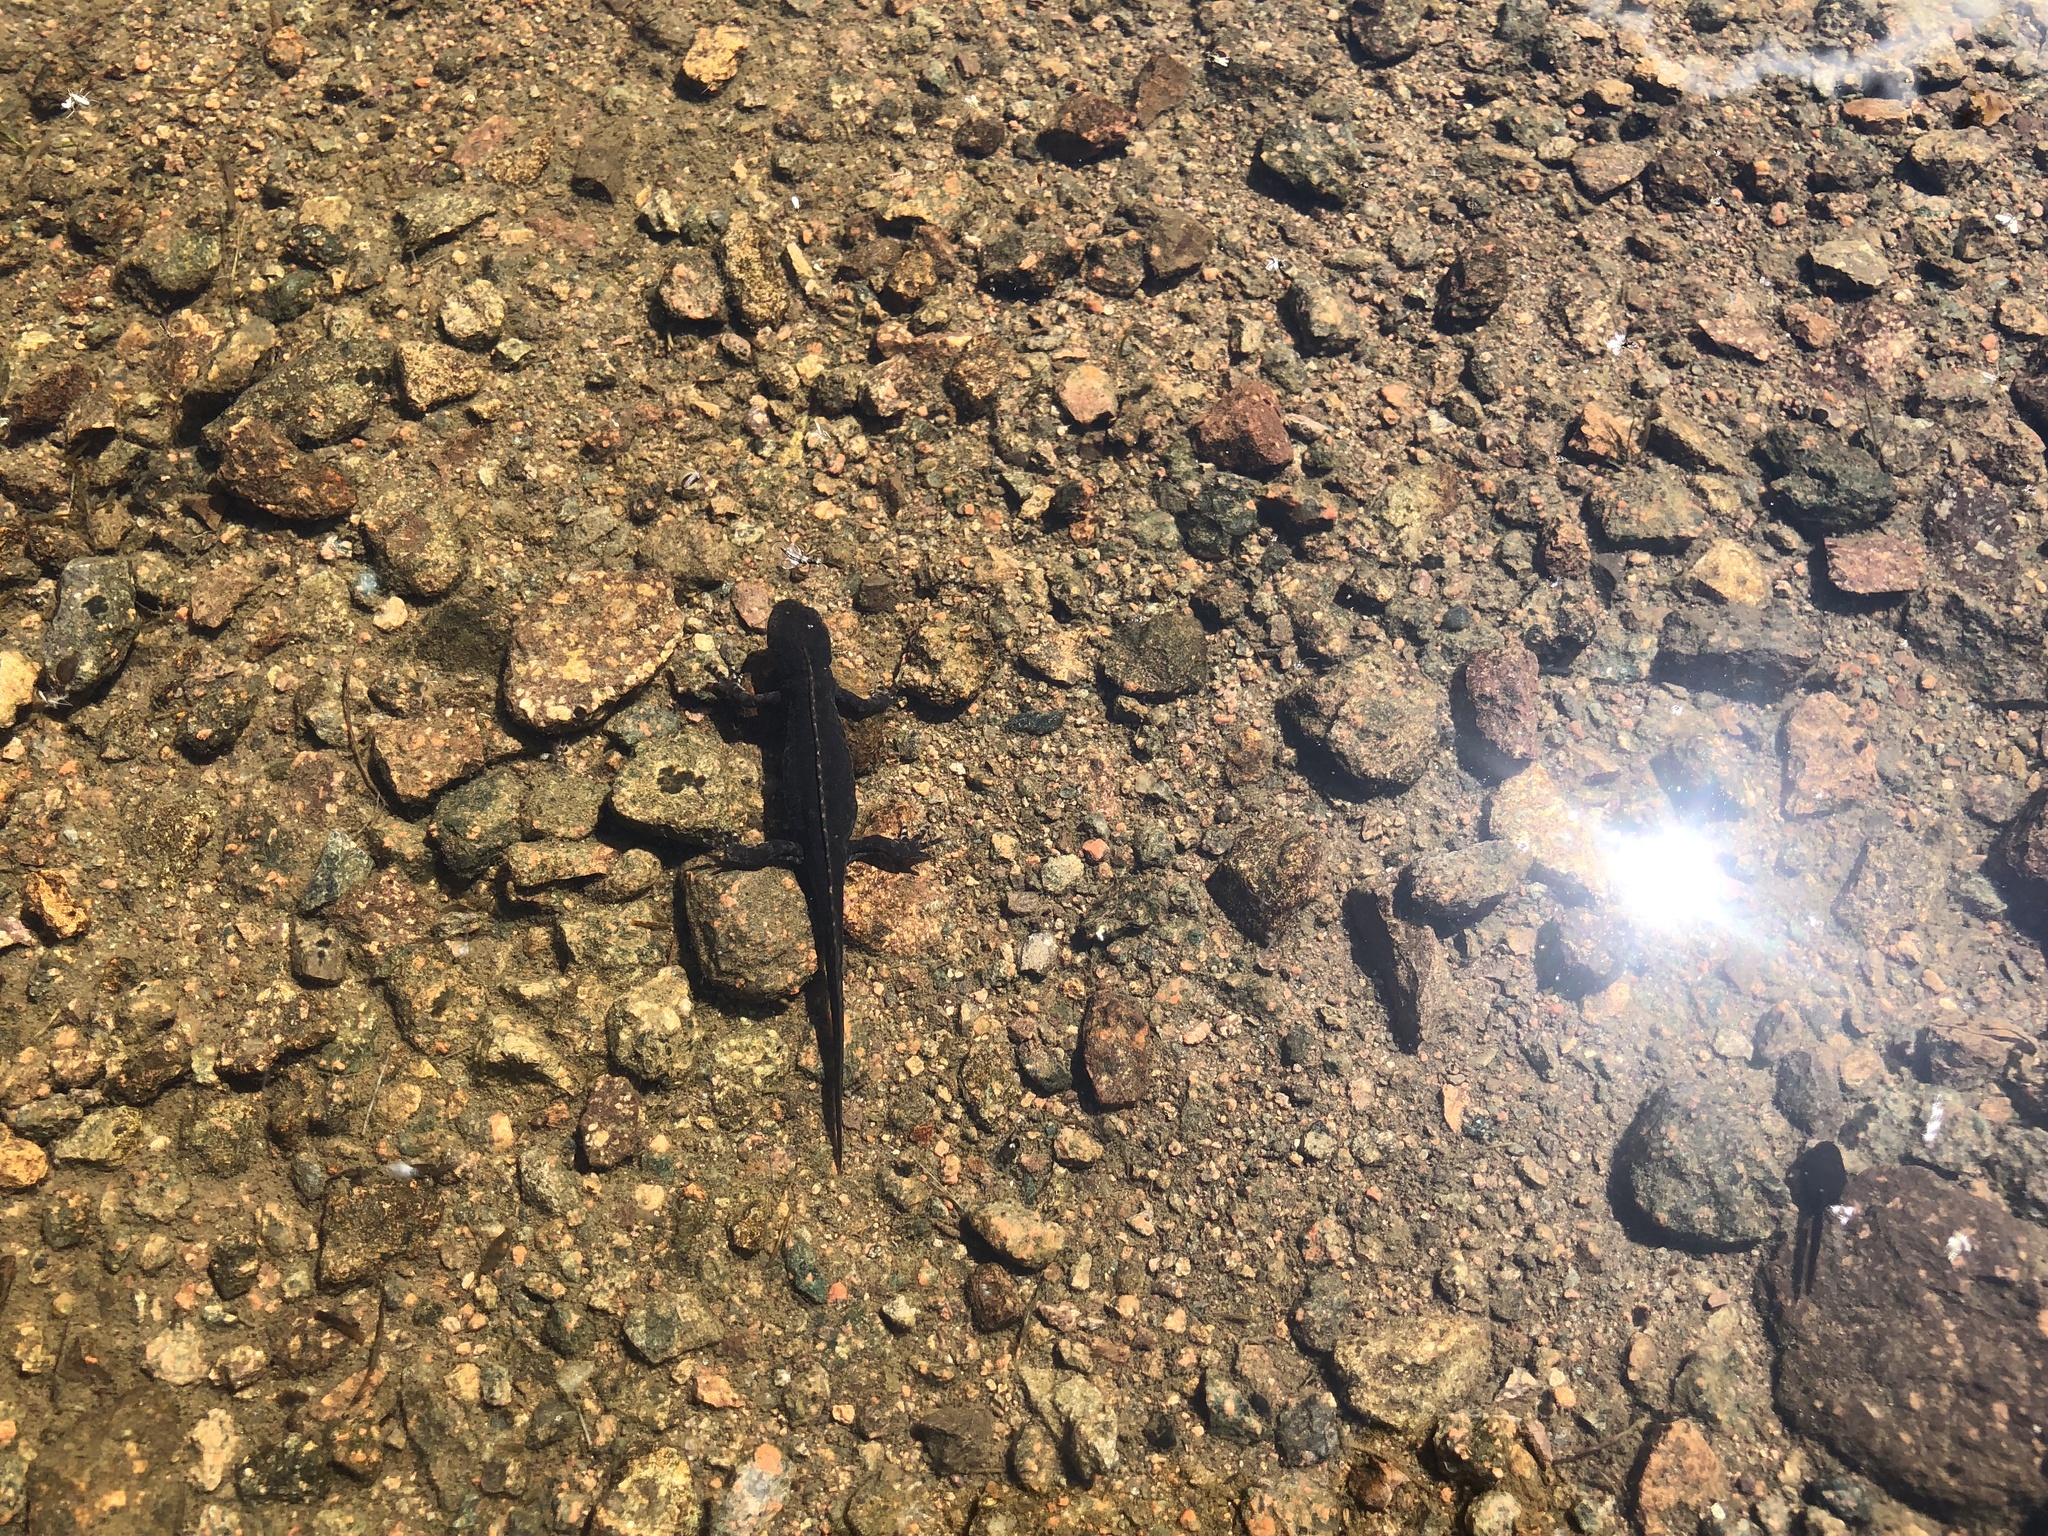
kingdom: Animalia
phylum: Chordata
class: Amphibia
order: Caudata
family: Salamandridae
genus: Ichthyosaura
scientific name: Ichthyosaura alpestris
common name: Alpine newt
